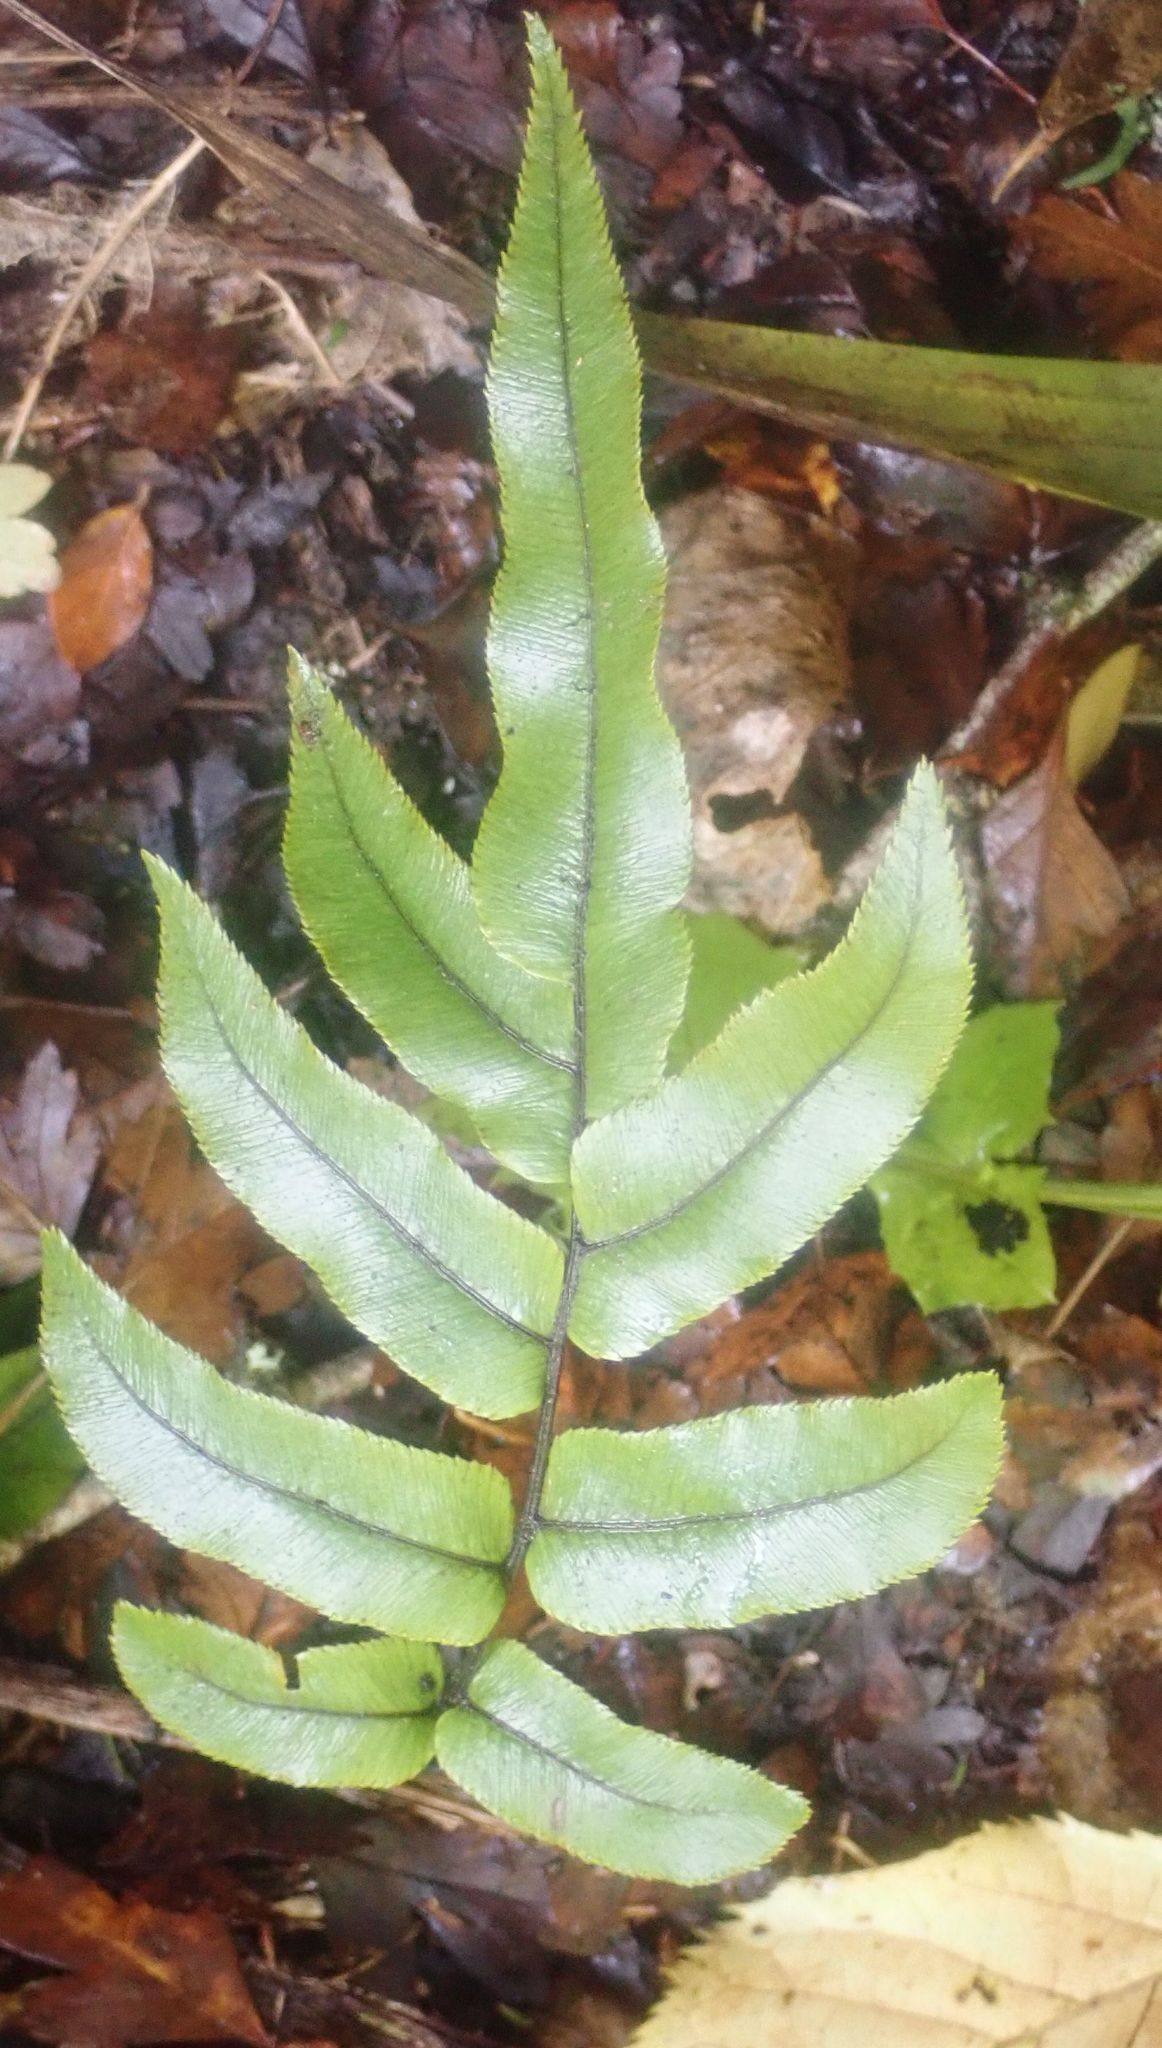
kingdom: Plantae
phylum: Tracheophyta
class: Polypodiopsida
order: Polypodiales
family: Blechnaceae
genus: Parablechnum
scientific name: Parablechnum procerum
